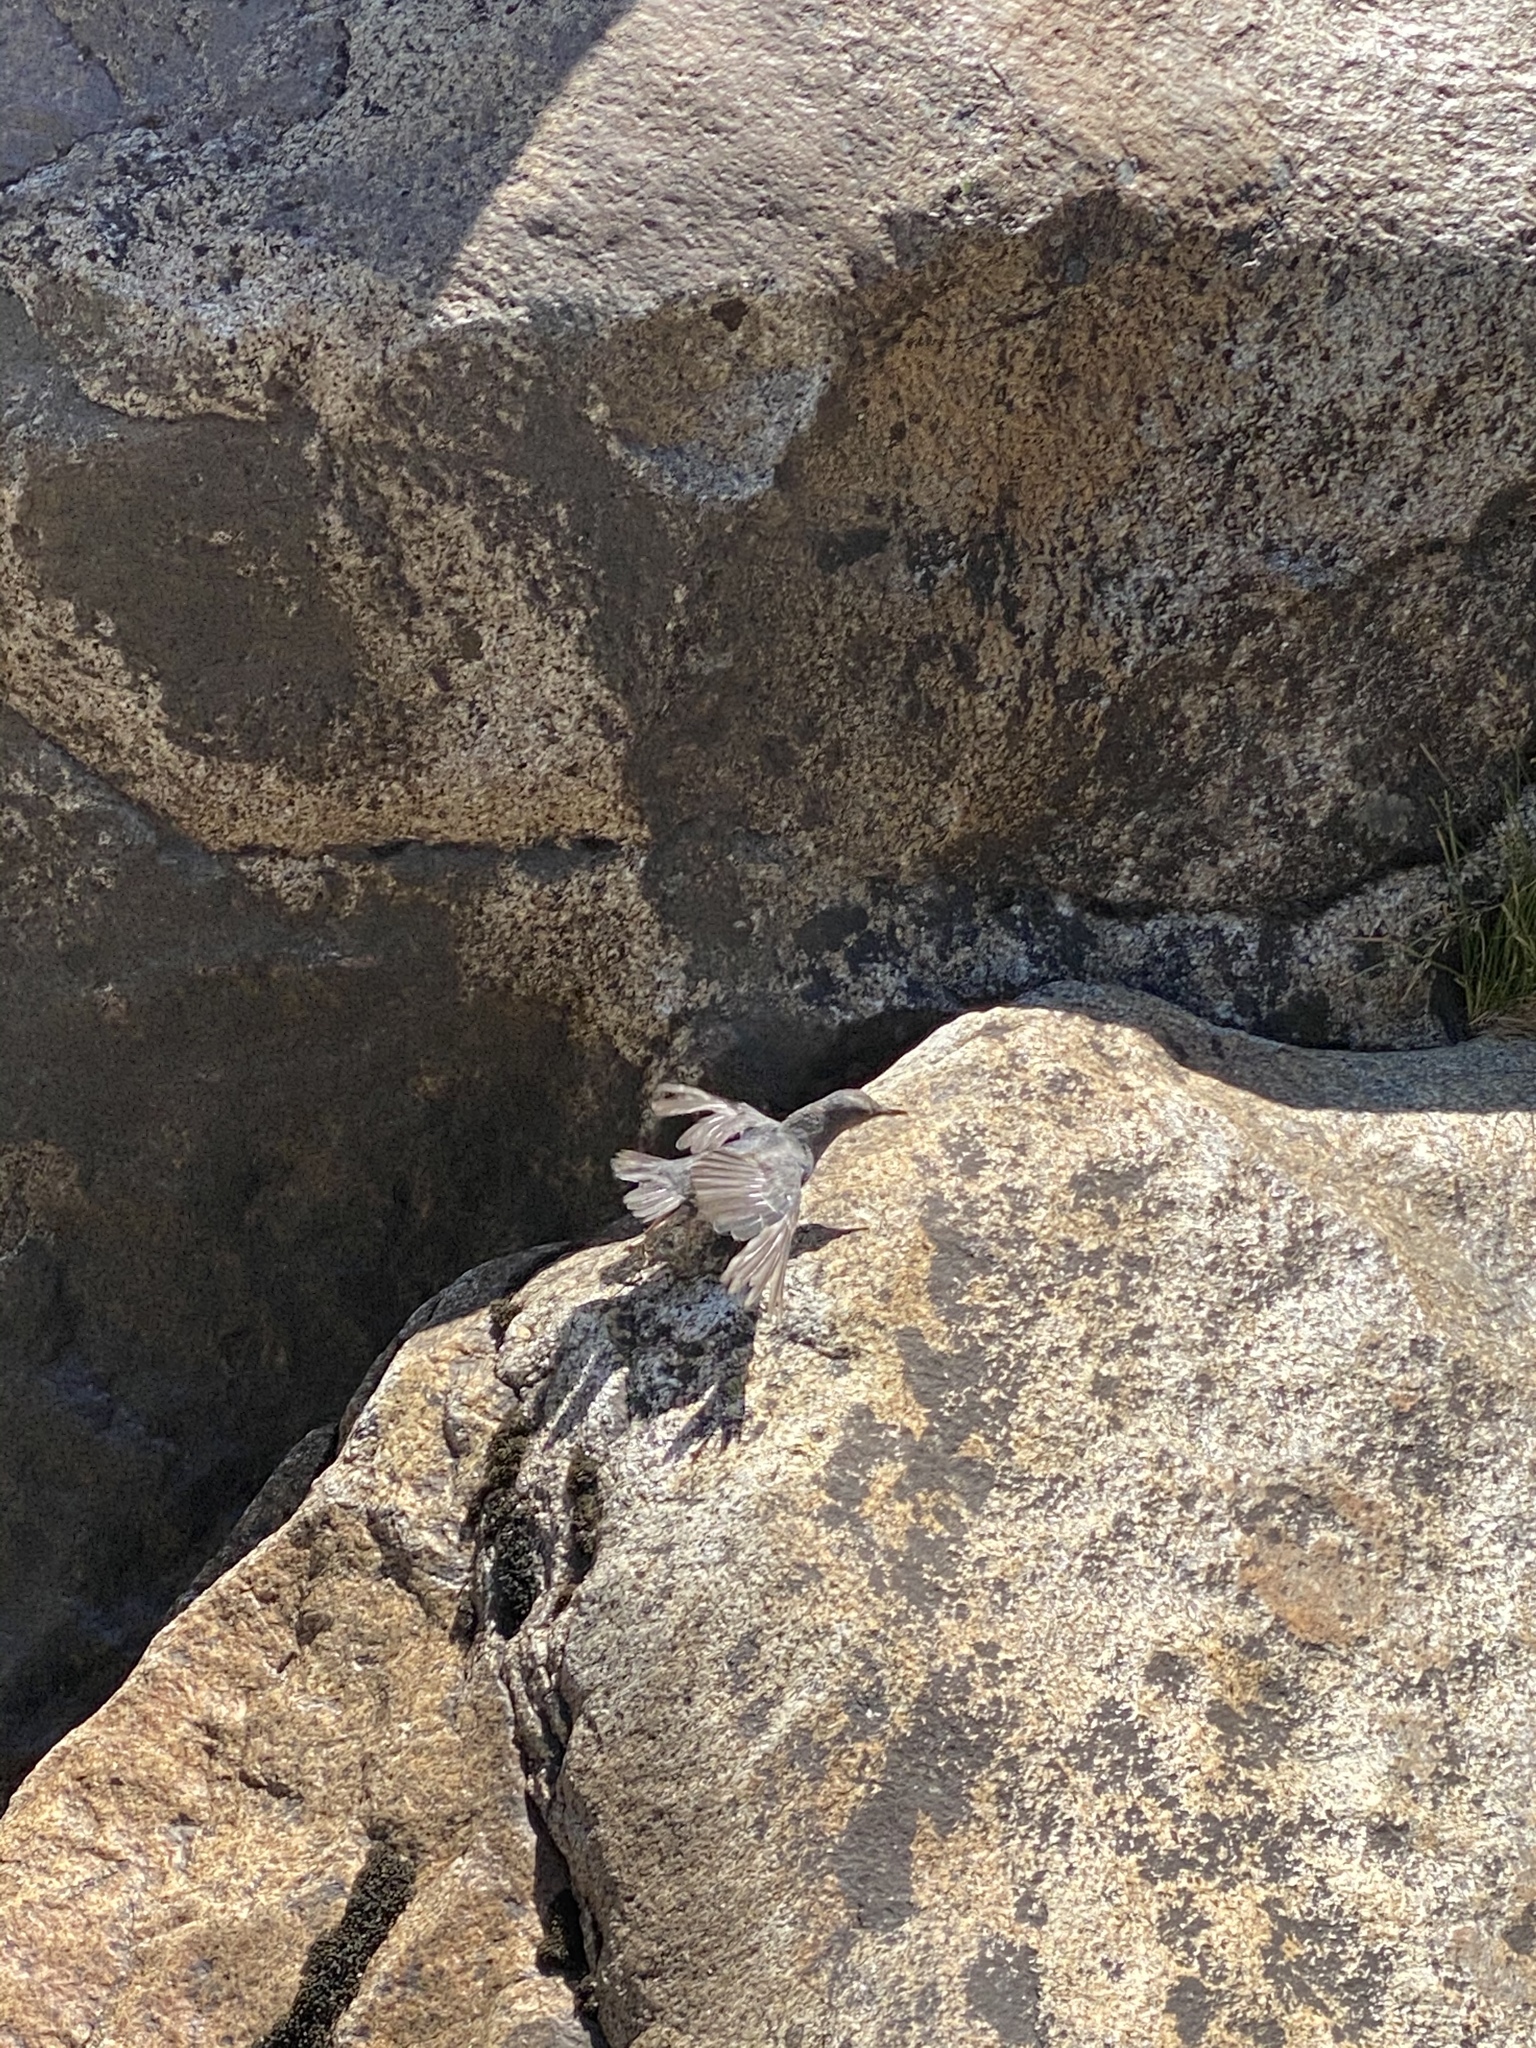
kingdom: Animalia
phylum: Chordata
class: Aves
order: Passeriformes
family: Cinclidae
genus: Cinclus
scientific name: Cinclus mexicanus
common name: American dipper
